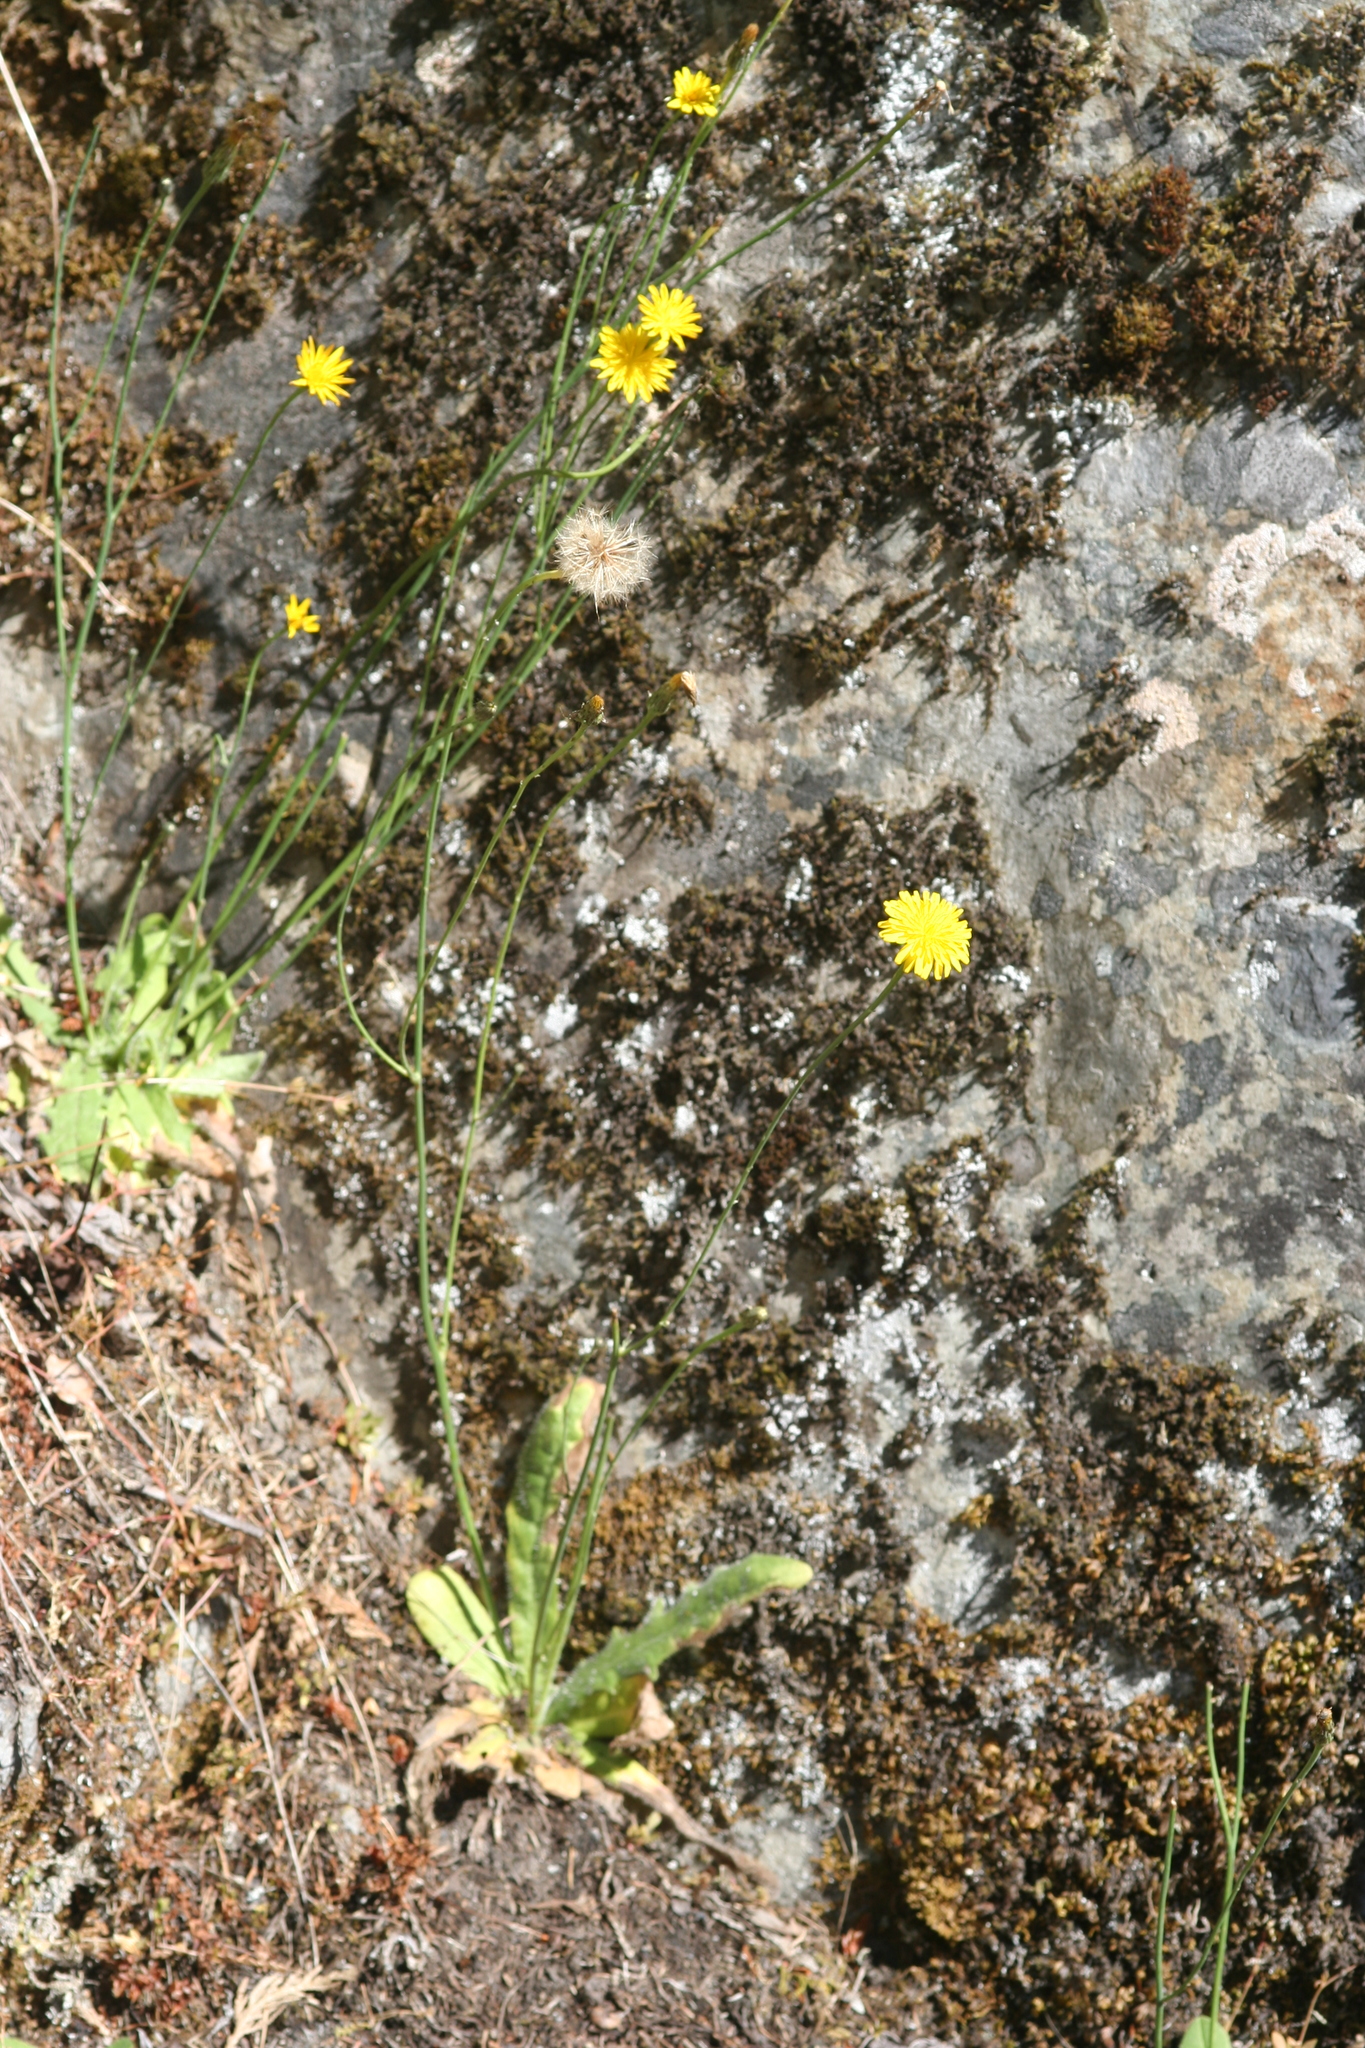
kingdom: Plantae
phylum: Tracheophyta
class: Magnoliopsida
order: Asterales
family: Asteraceae
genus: Hypochaeris
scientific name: Hypochaeris radicata
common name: Flatweed
